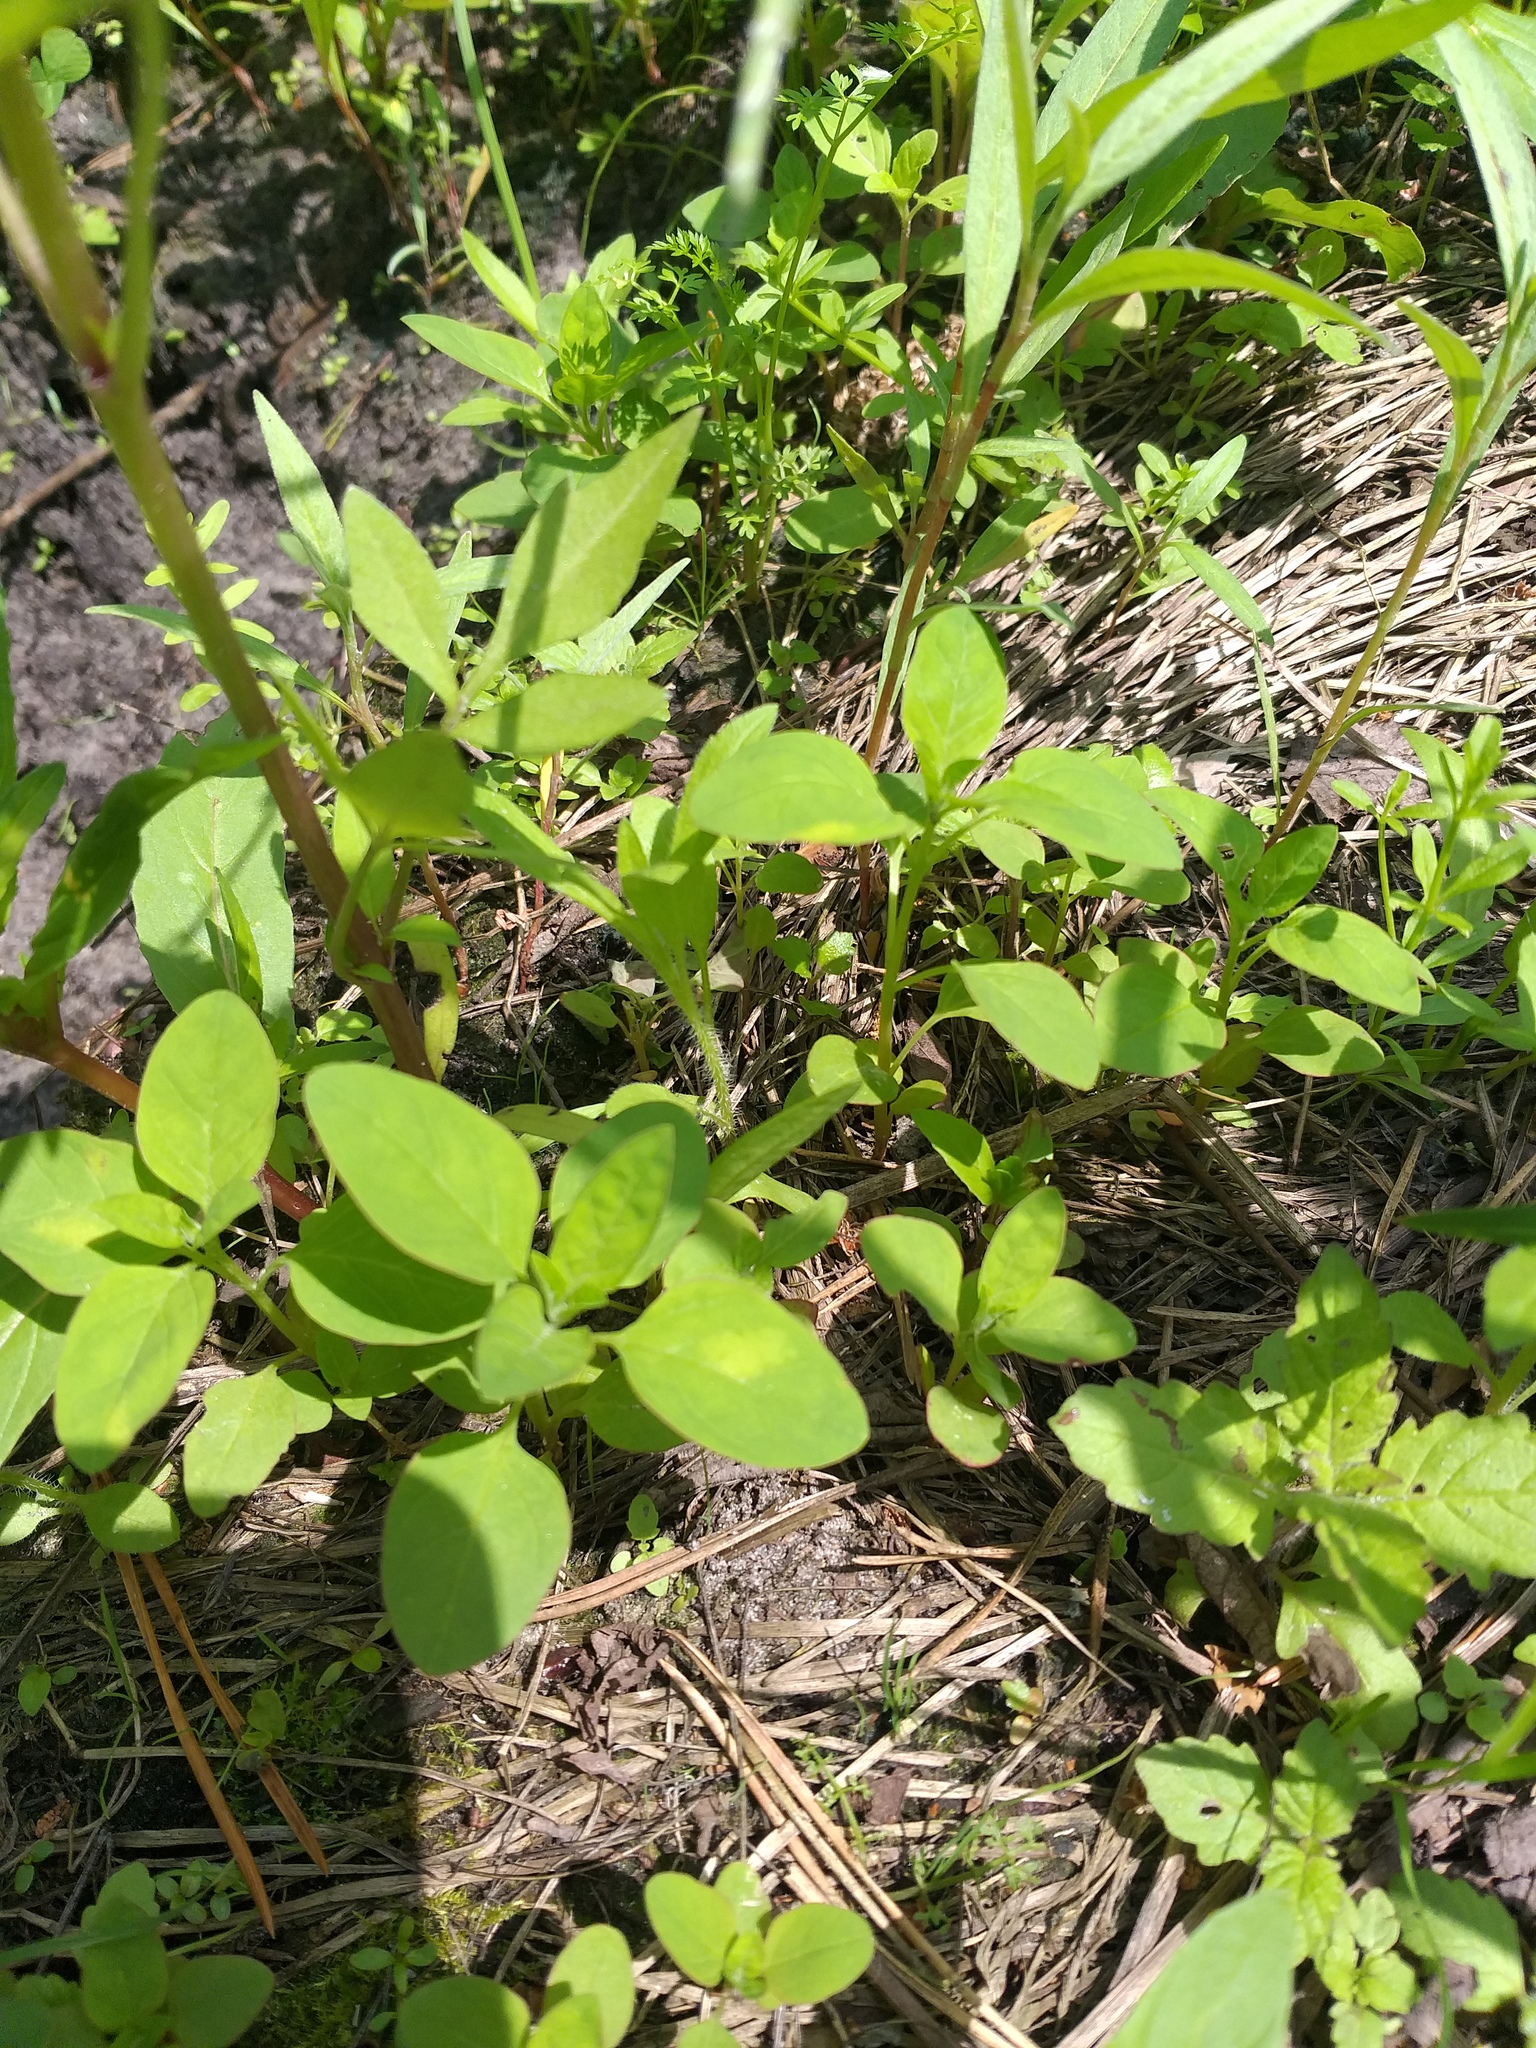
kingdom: Plantae
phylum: Tracheophyta
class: Magnoliopsida
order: Caryophyllales
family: Amaranthaceae
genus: Lipandra
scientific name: Lipandra polysperma
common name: Many-seed goosefoot
